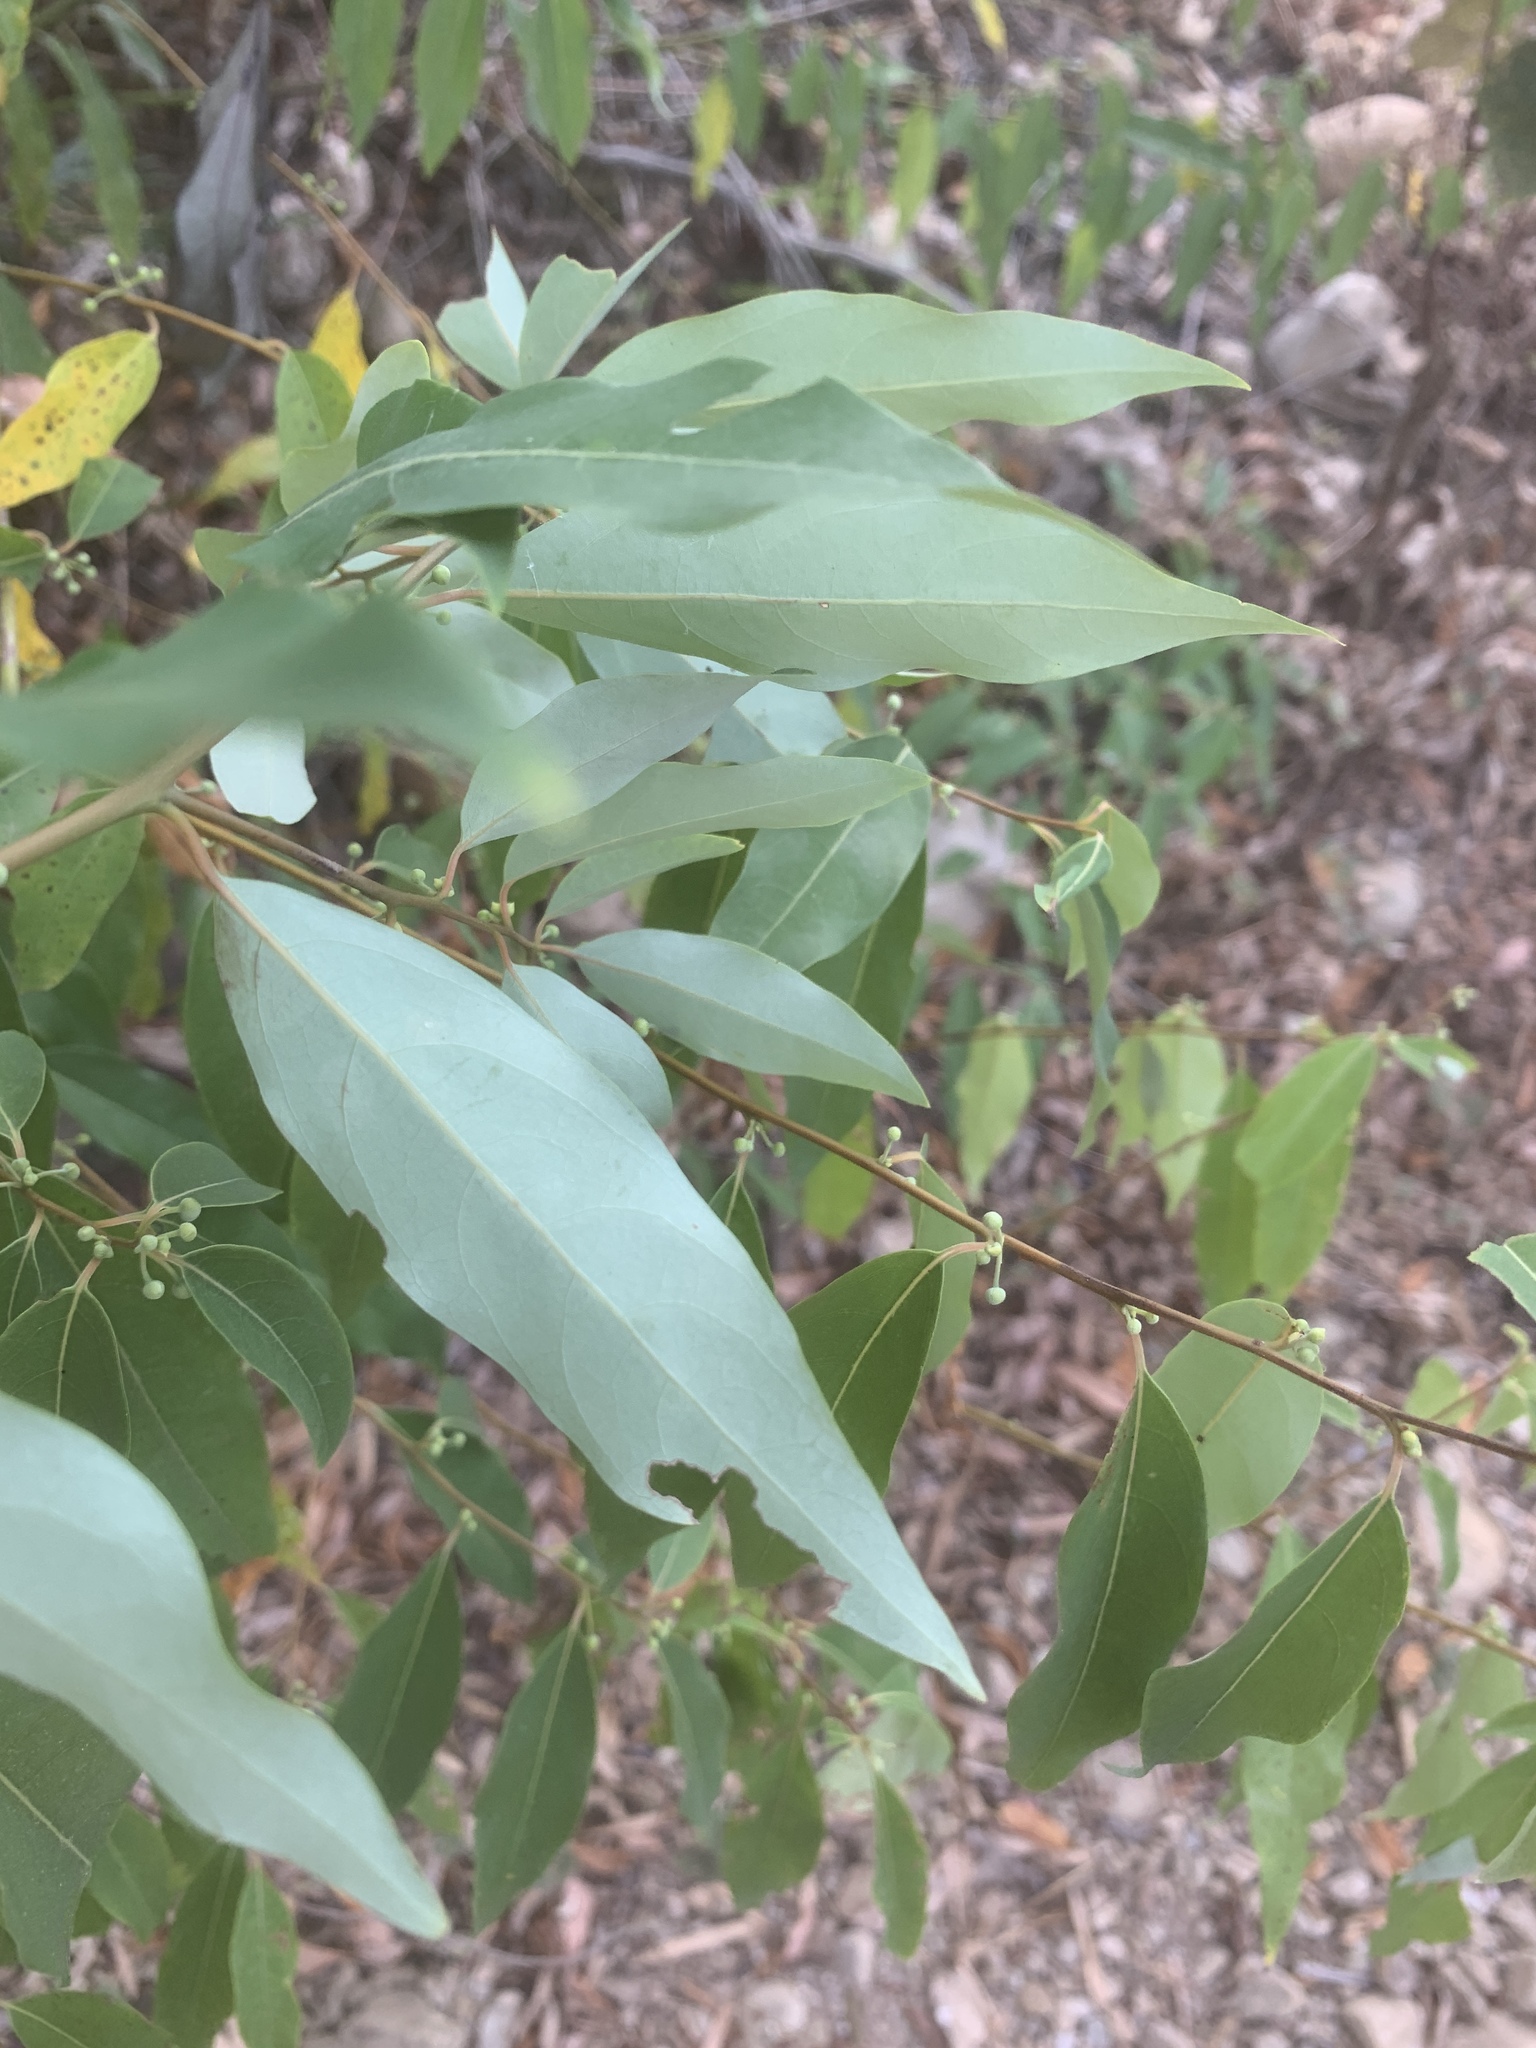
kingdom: Plantae
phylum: Tracheophyta
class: Magnoliopsida
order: Laurales
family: Lauraceae
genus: Litsea
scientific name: Litsea cubeba
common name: Mountain-pepper
